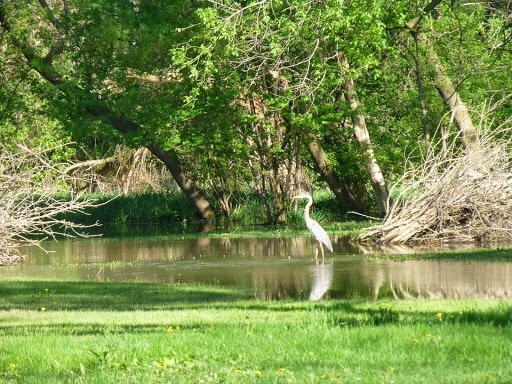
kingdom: Animalia
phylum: Chordata
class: Aves
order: Pelecaniformes
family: Ardeidae
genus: Ardea
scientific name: Ardea herodias
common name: Great blue heron
